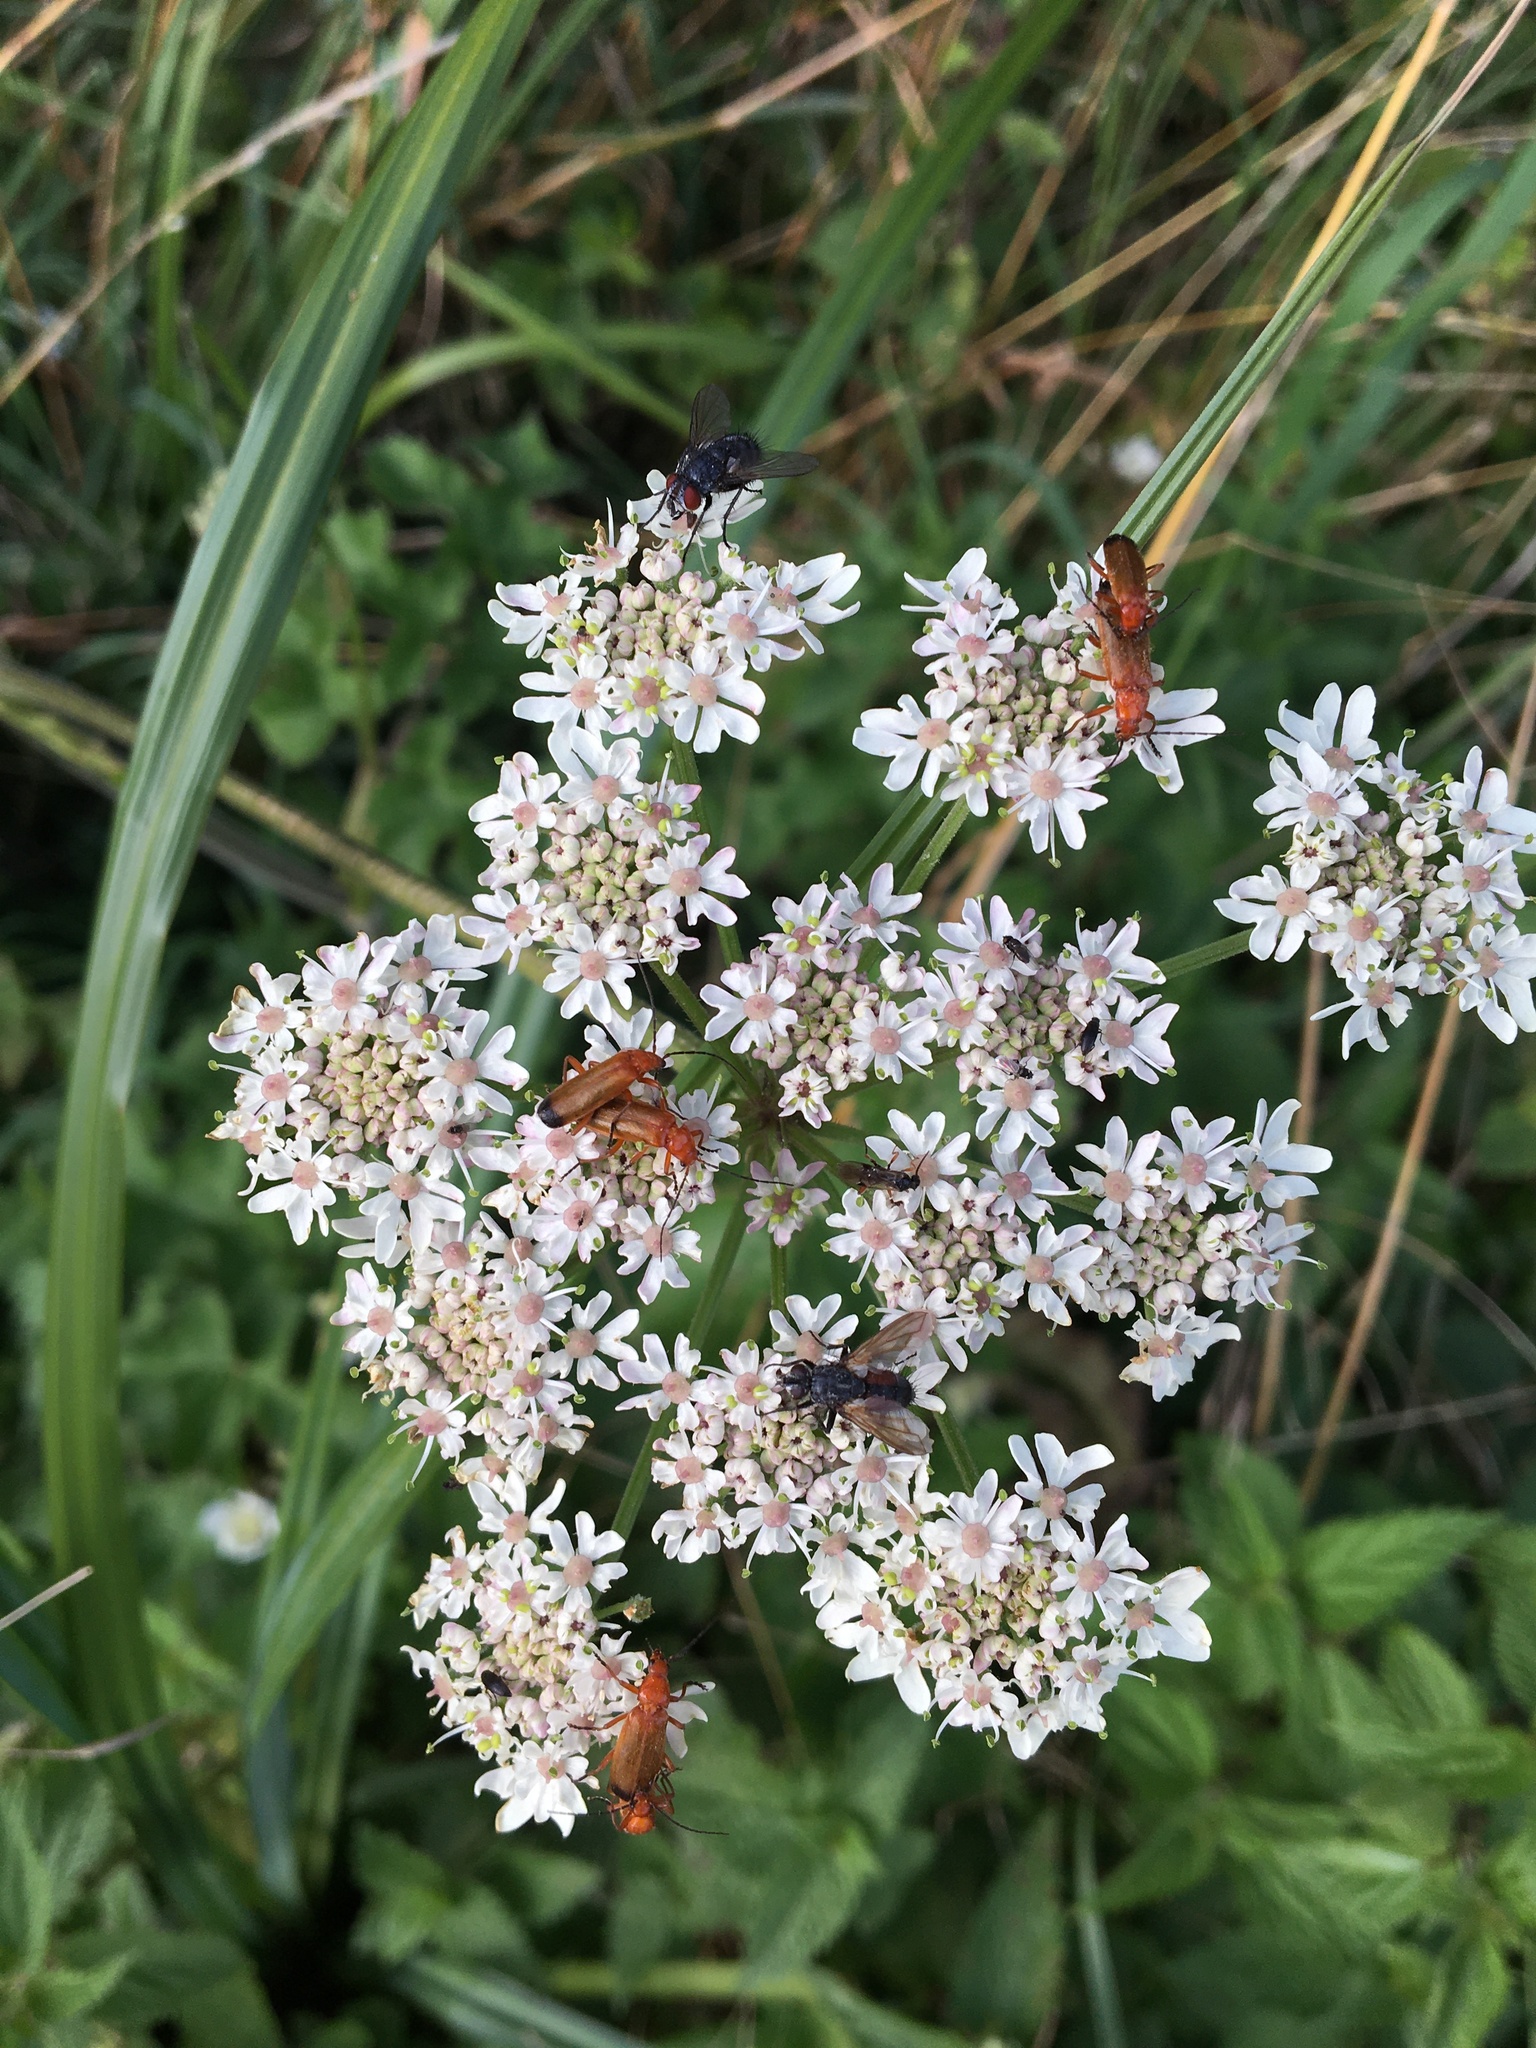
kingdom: Animalia
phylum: Arthropoda
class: Insecta
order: Coleoptera
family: Cantharidae
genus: Rhagonycha
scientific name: Rhagonycha fulva
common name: Common red soldier beetle
